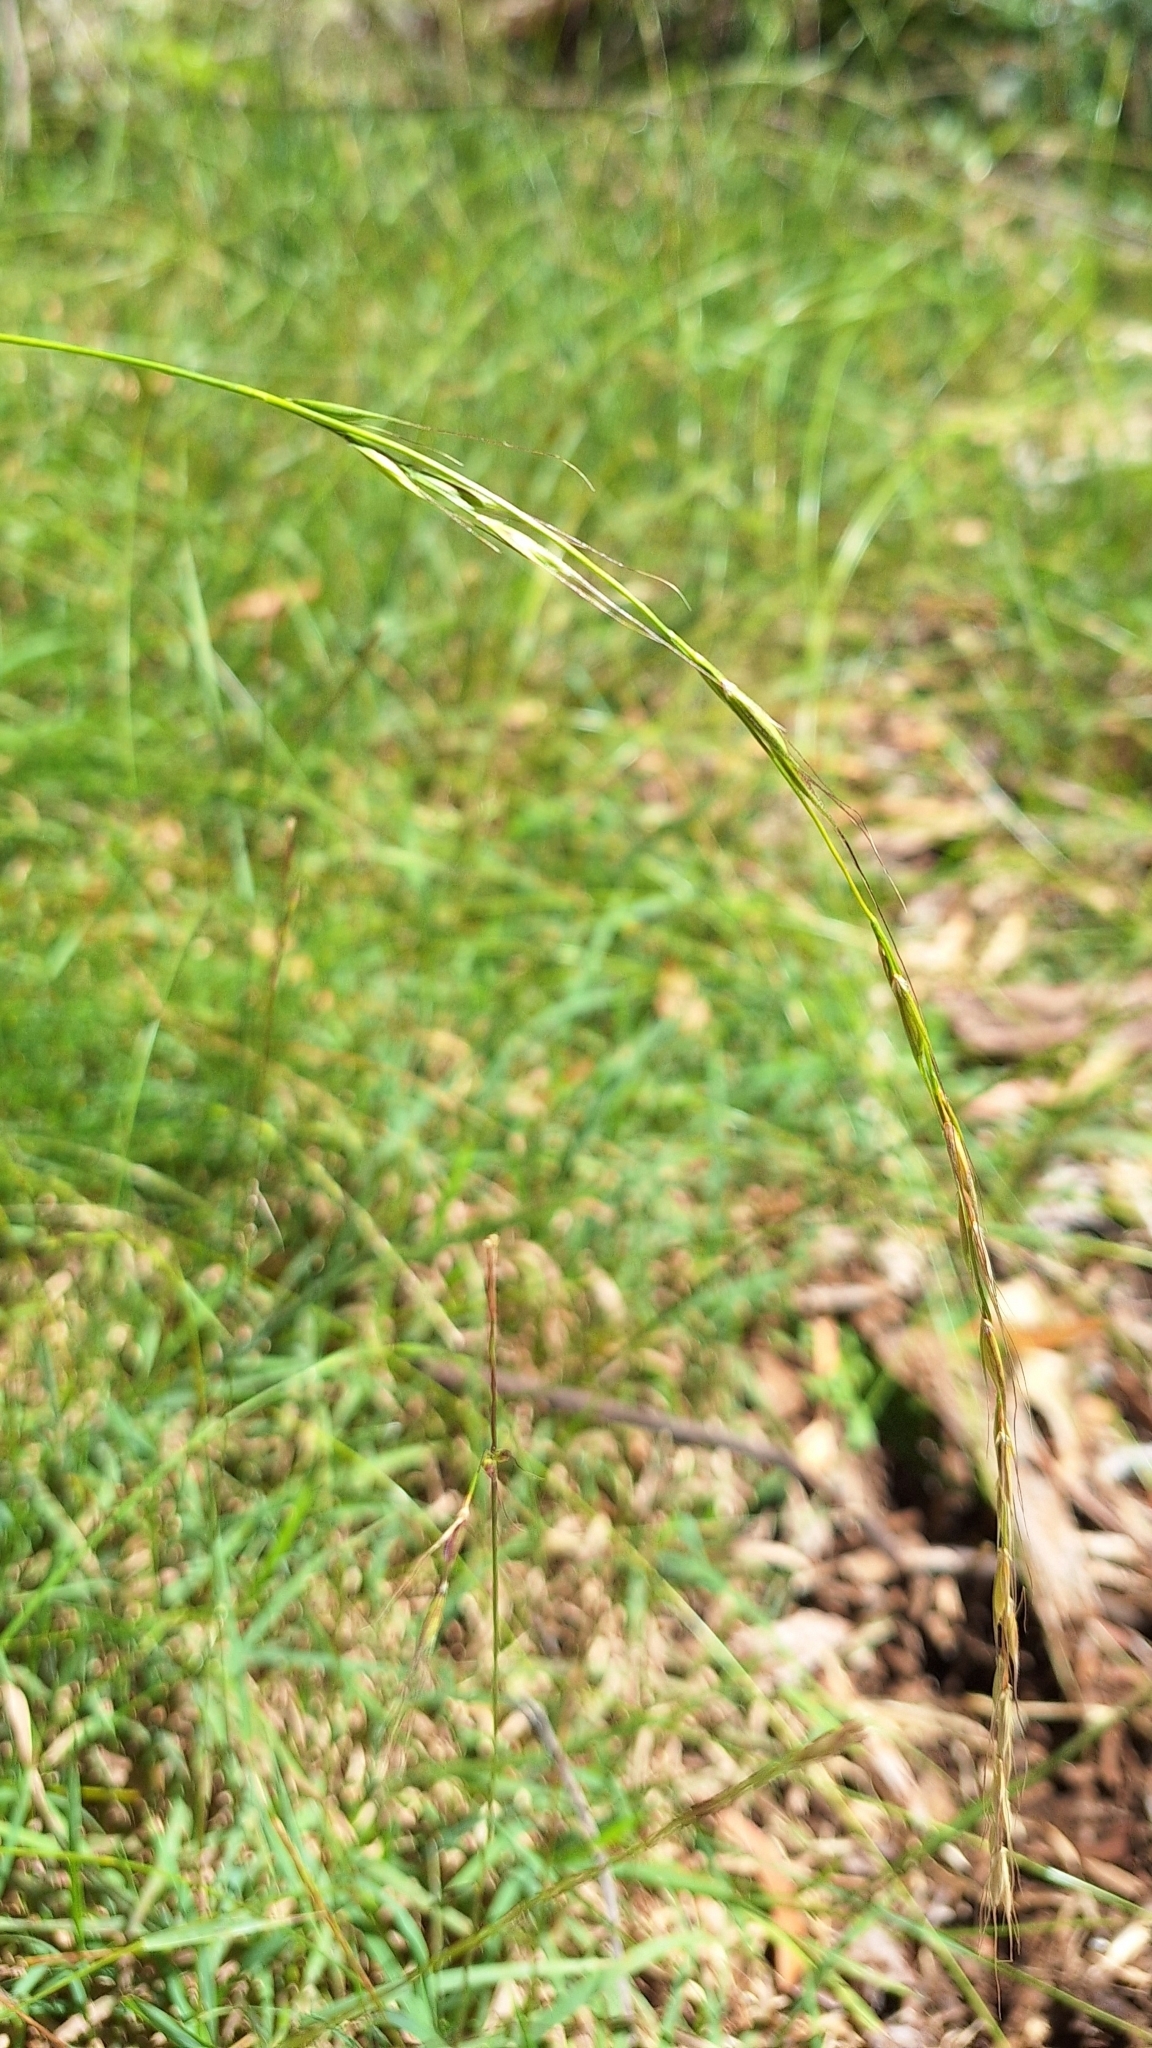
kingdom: Plantae
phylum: Tracheophyta
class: Liliopsida
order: Poales
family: Poaceae
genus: Microlaena
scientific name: Microlaena stipoides
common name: Meadow ricegrass
